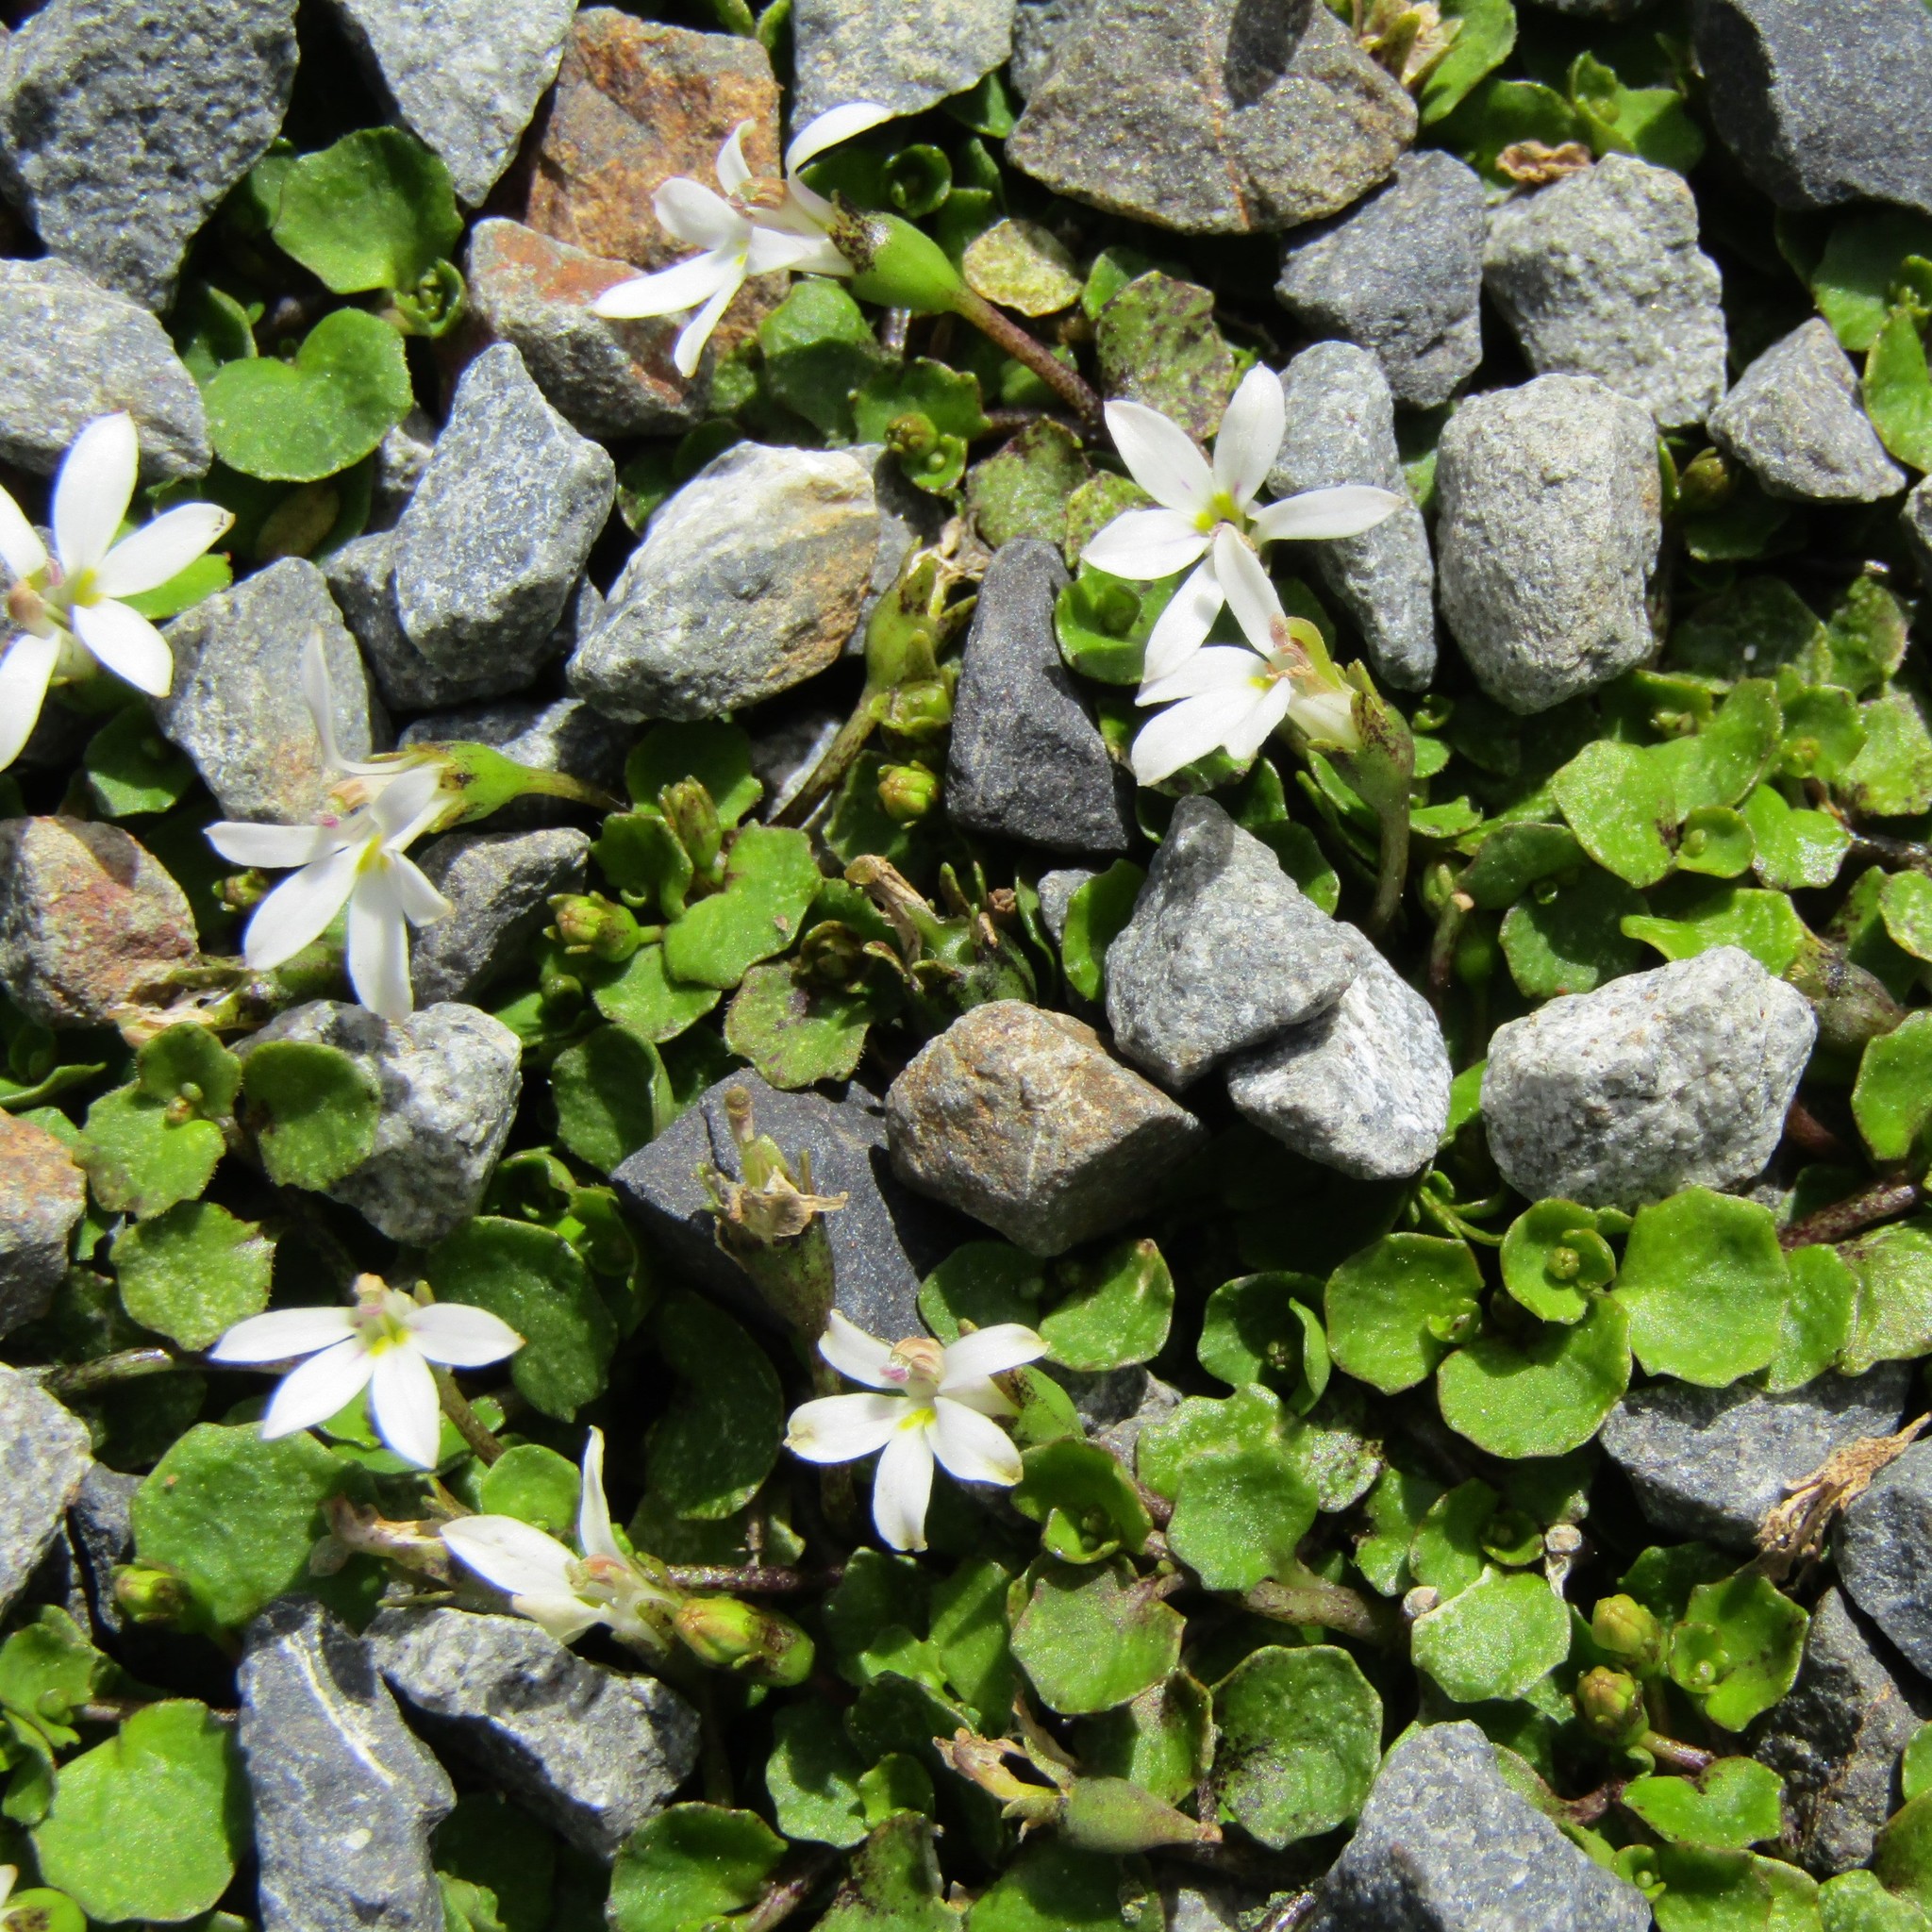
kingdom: Plantae
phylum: Tracheophyta
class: Magnoliopsida
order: Asterales
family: Campanulaceae
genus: Lobelia
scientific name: Lobelia angulata
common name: Lawn lobelia
